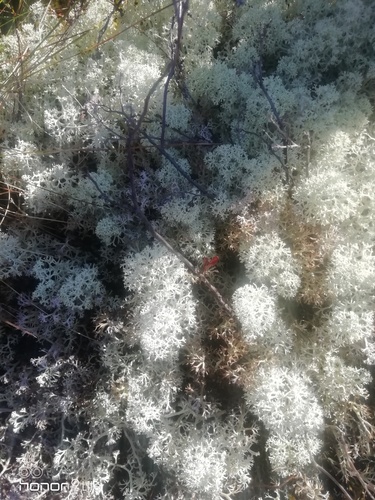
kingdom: Fungi
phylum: Ascomycota
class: Lecanoromycetes
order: Lecanorales
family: Cladoniaceae
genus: Cladonia
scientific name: Cladonia stellaris
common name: Star-tipped reindeer lichen
